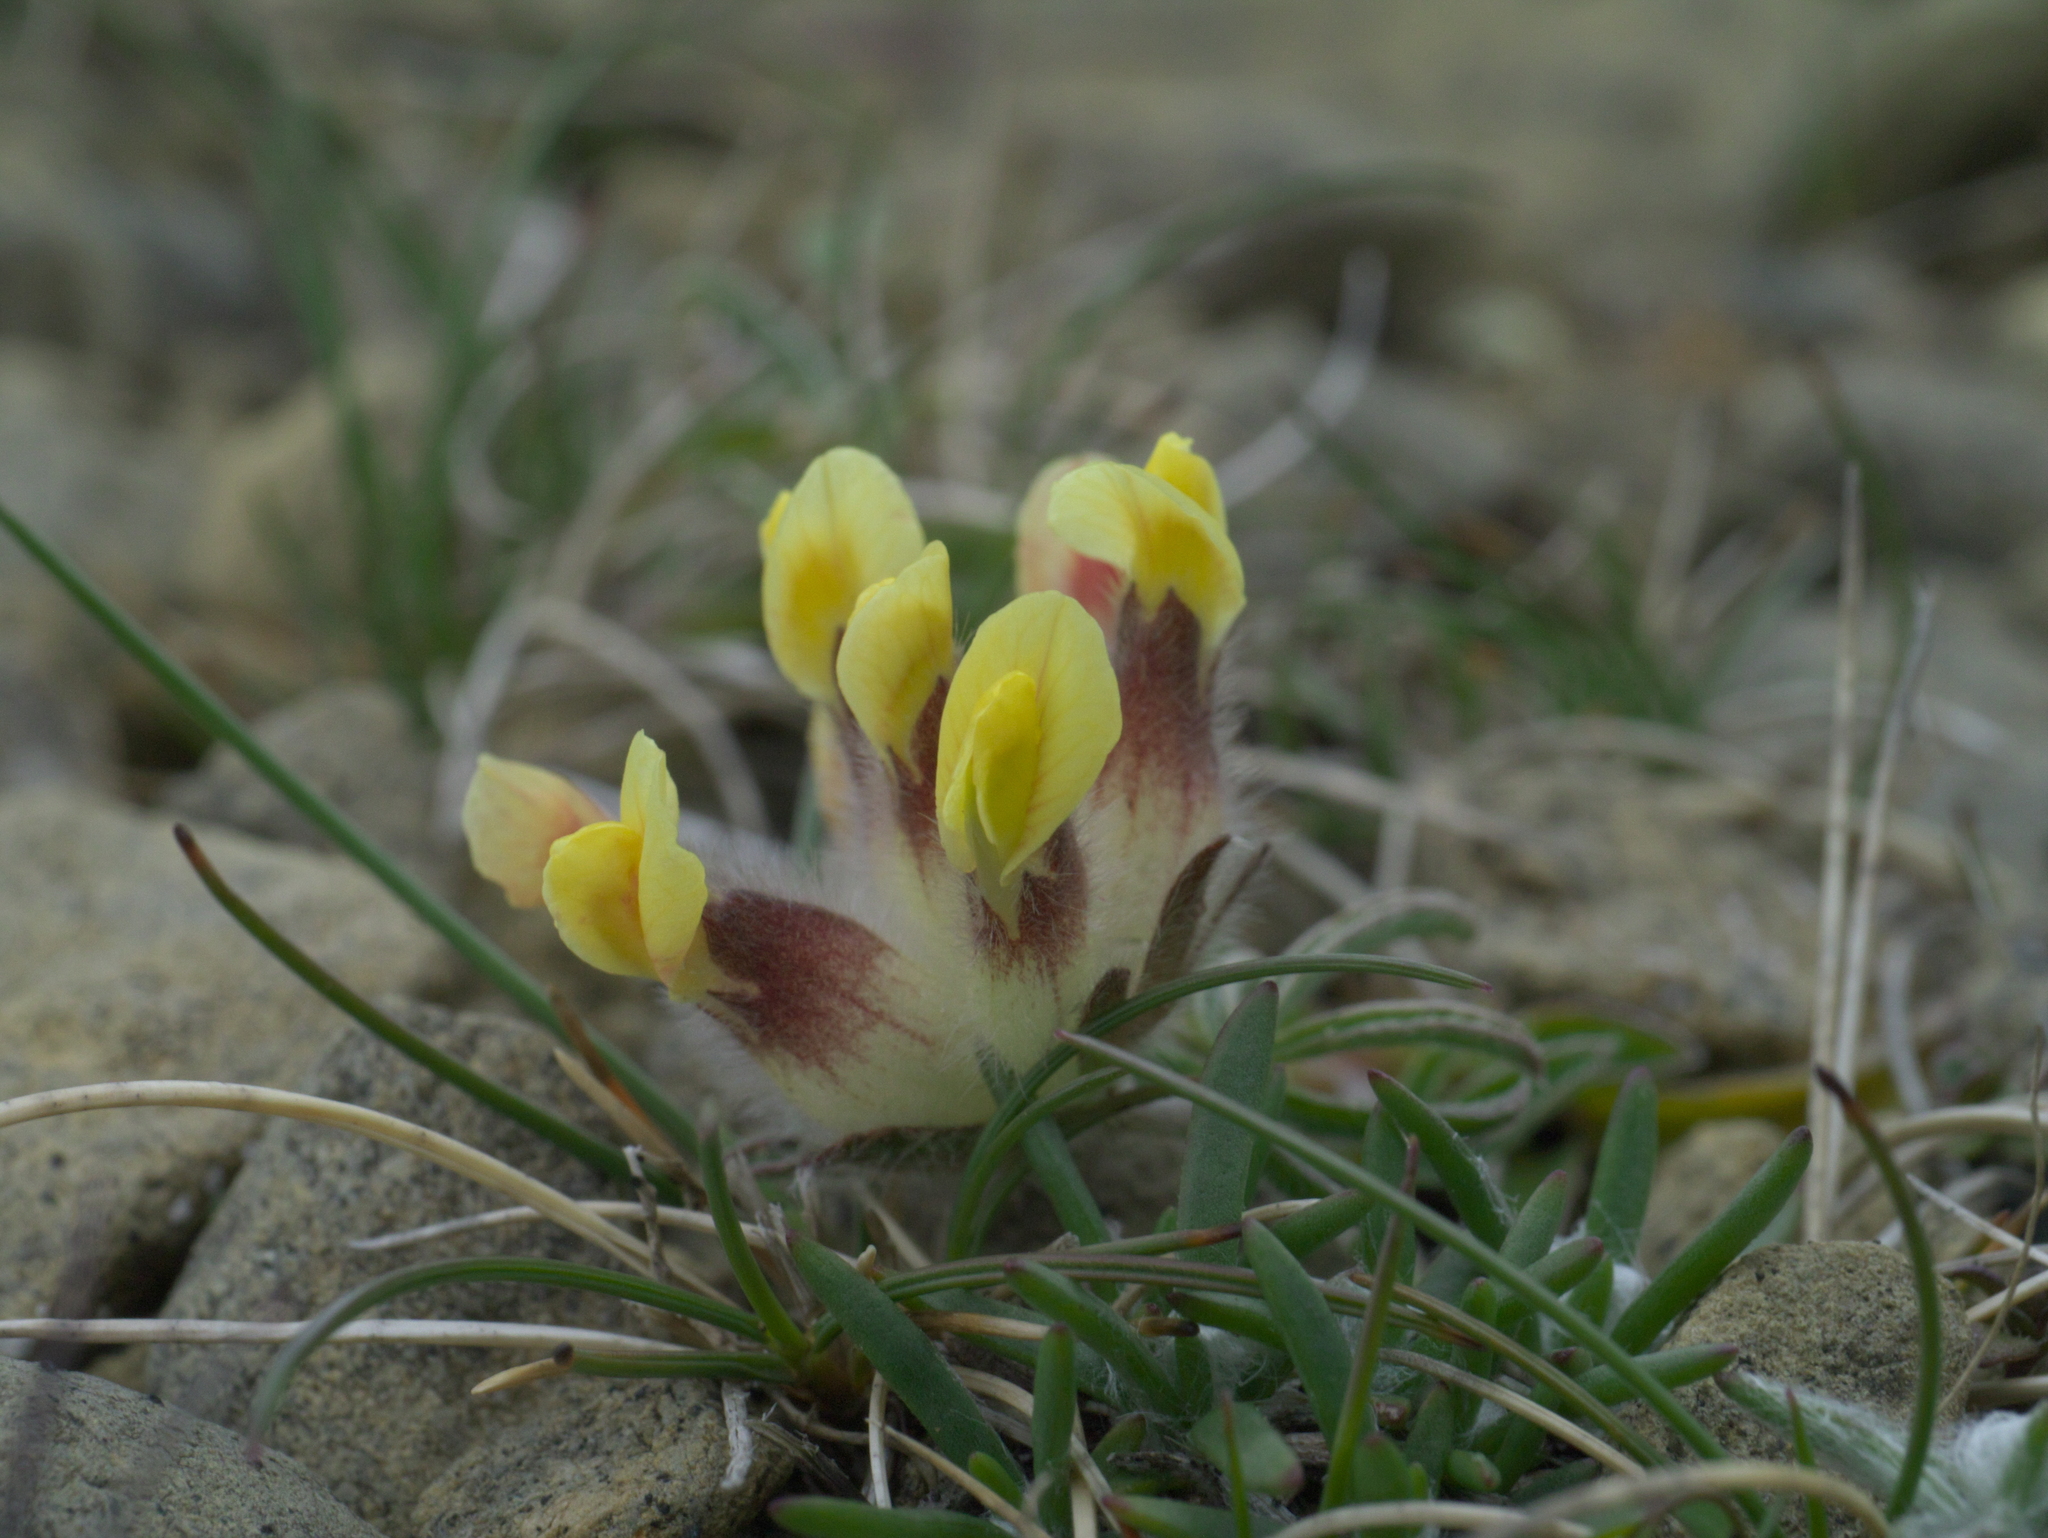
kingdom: Plantae
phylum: Tracheophyta
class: Magnoliopsida
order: Fabales
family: Fabaceae
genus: Anthyllis
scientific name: Anthyllis vulneraria
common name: Kidney vetch
